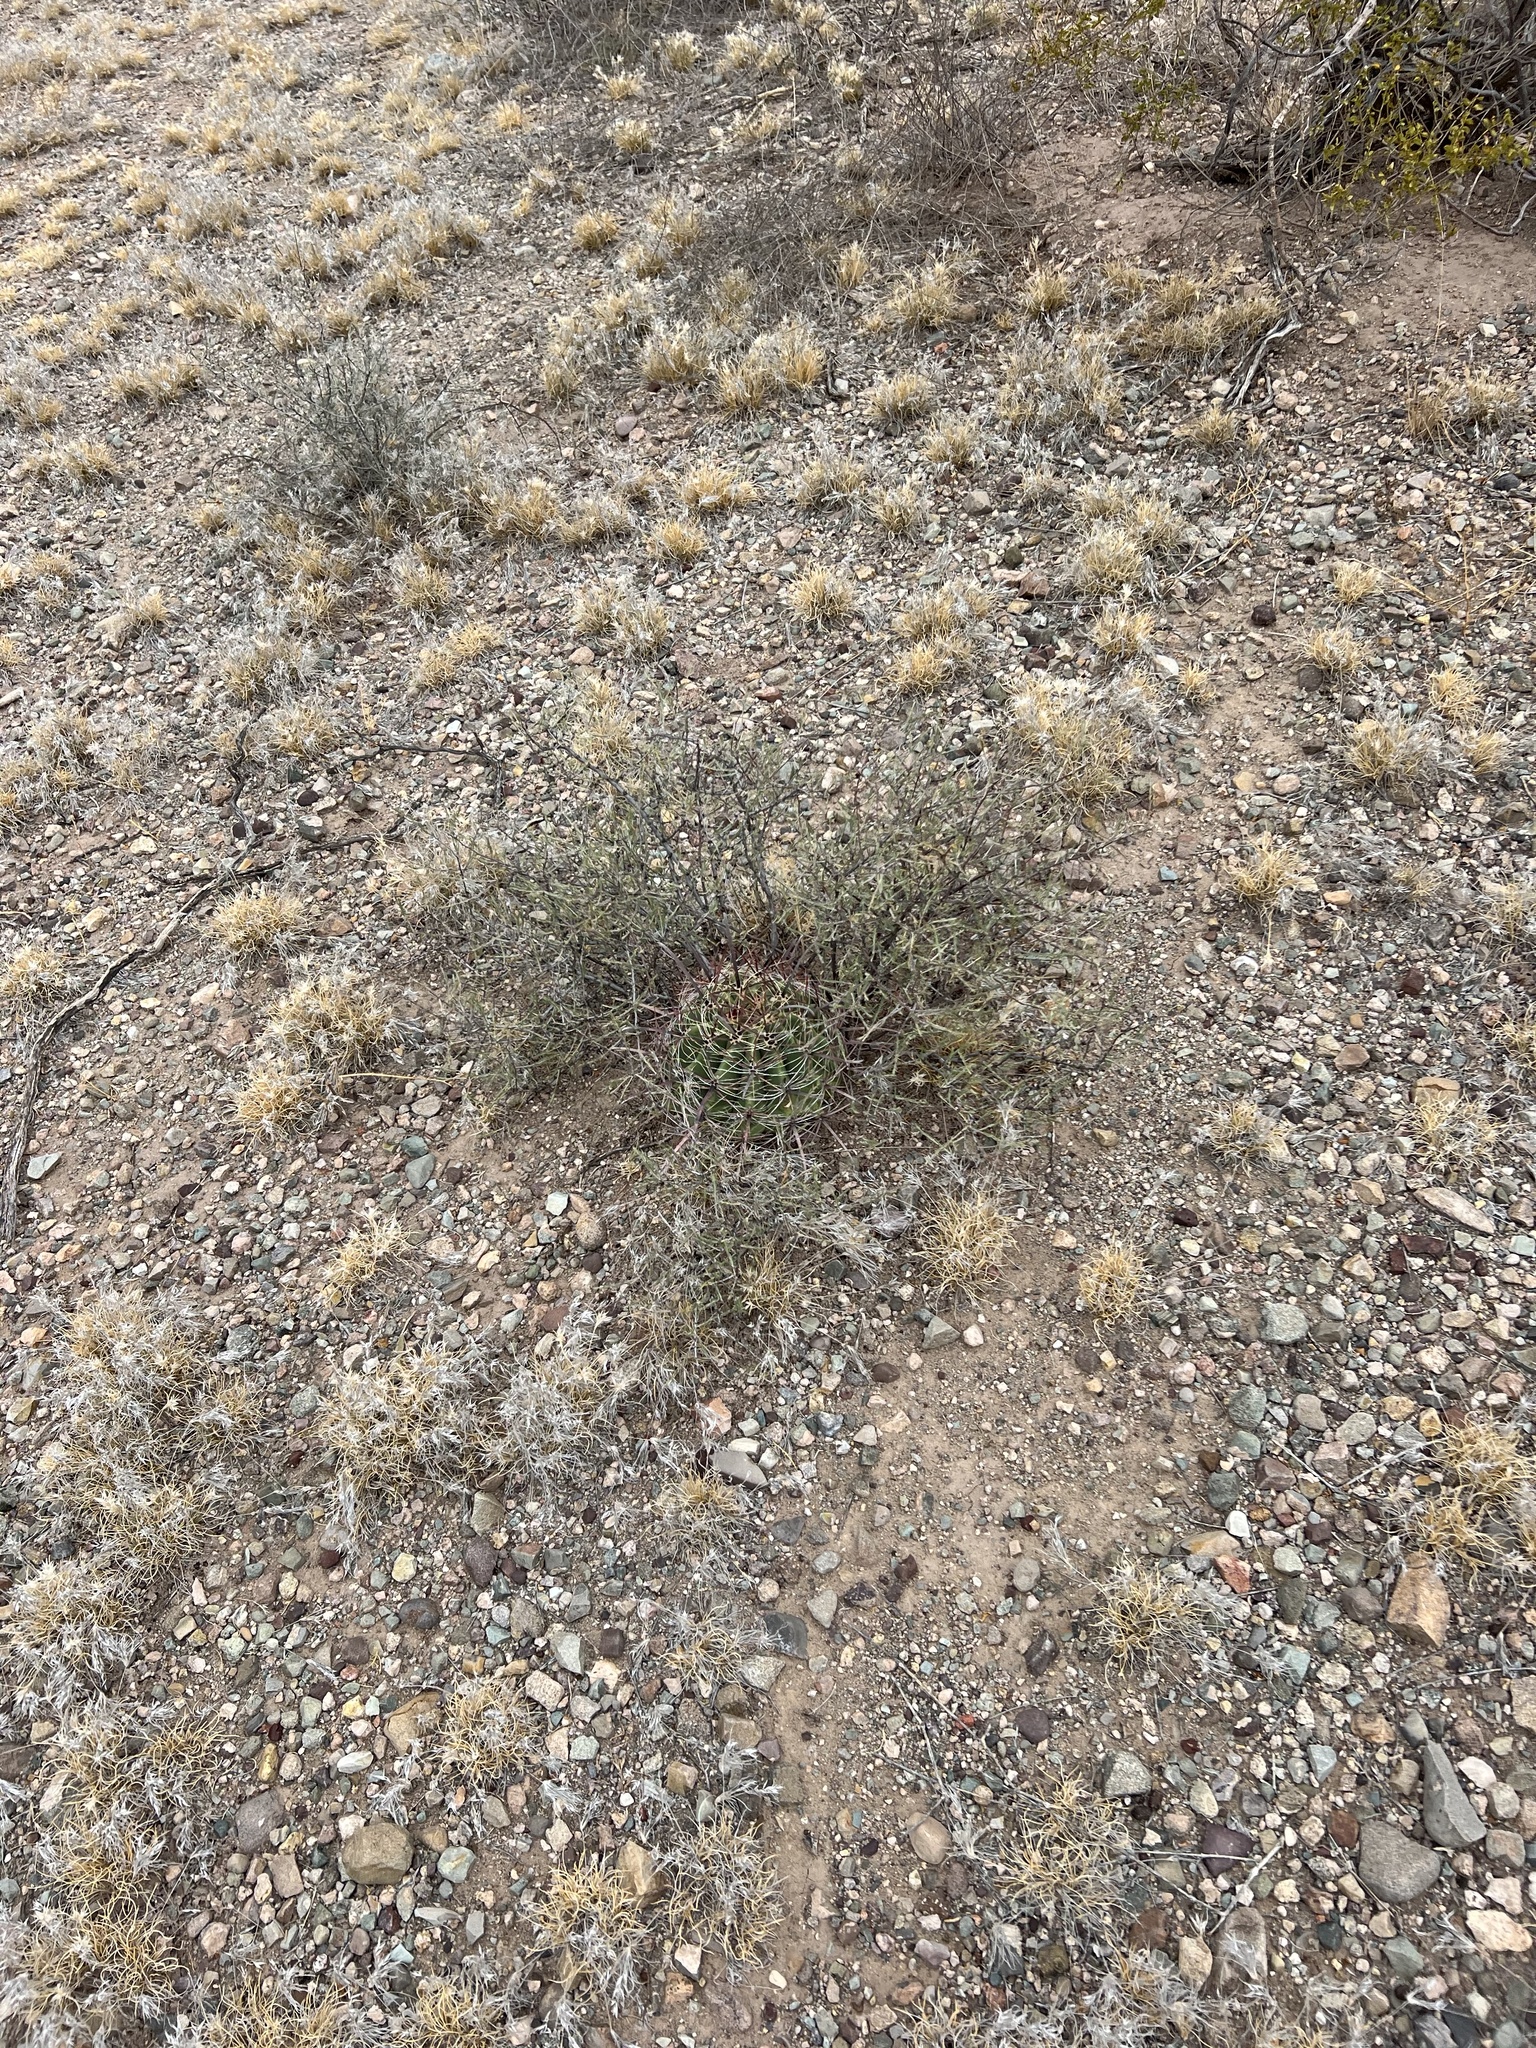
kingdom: Plantae
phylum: Tracheophyta
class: Magnoliopsida
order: Caryophyllales
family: Cactaceae
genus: Ferocactus
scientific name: Ferocactus wislizeni
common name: Candy barrel cactus
